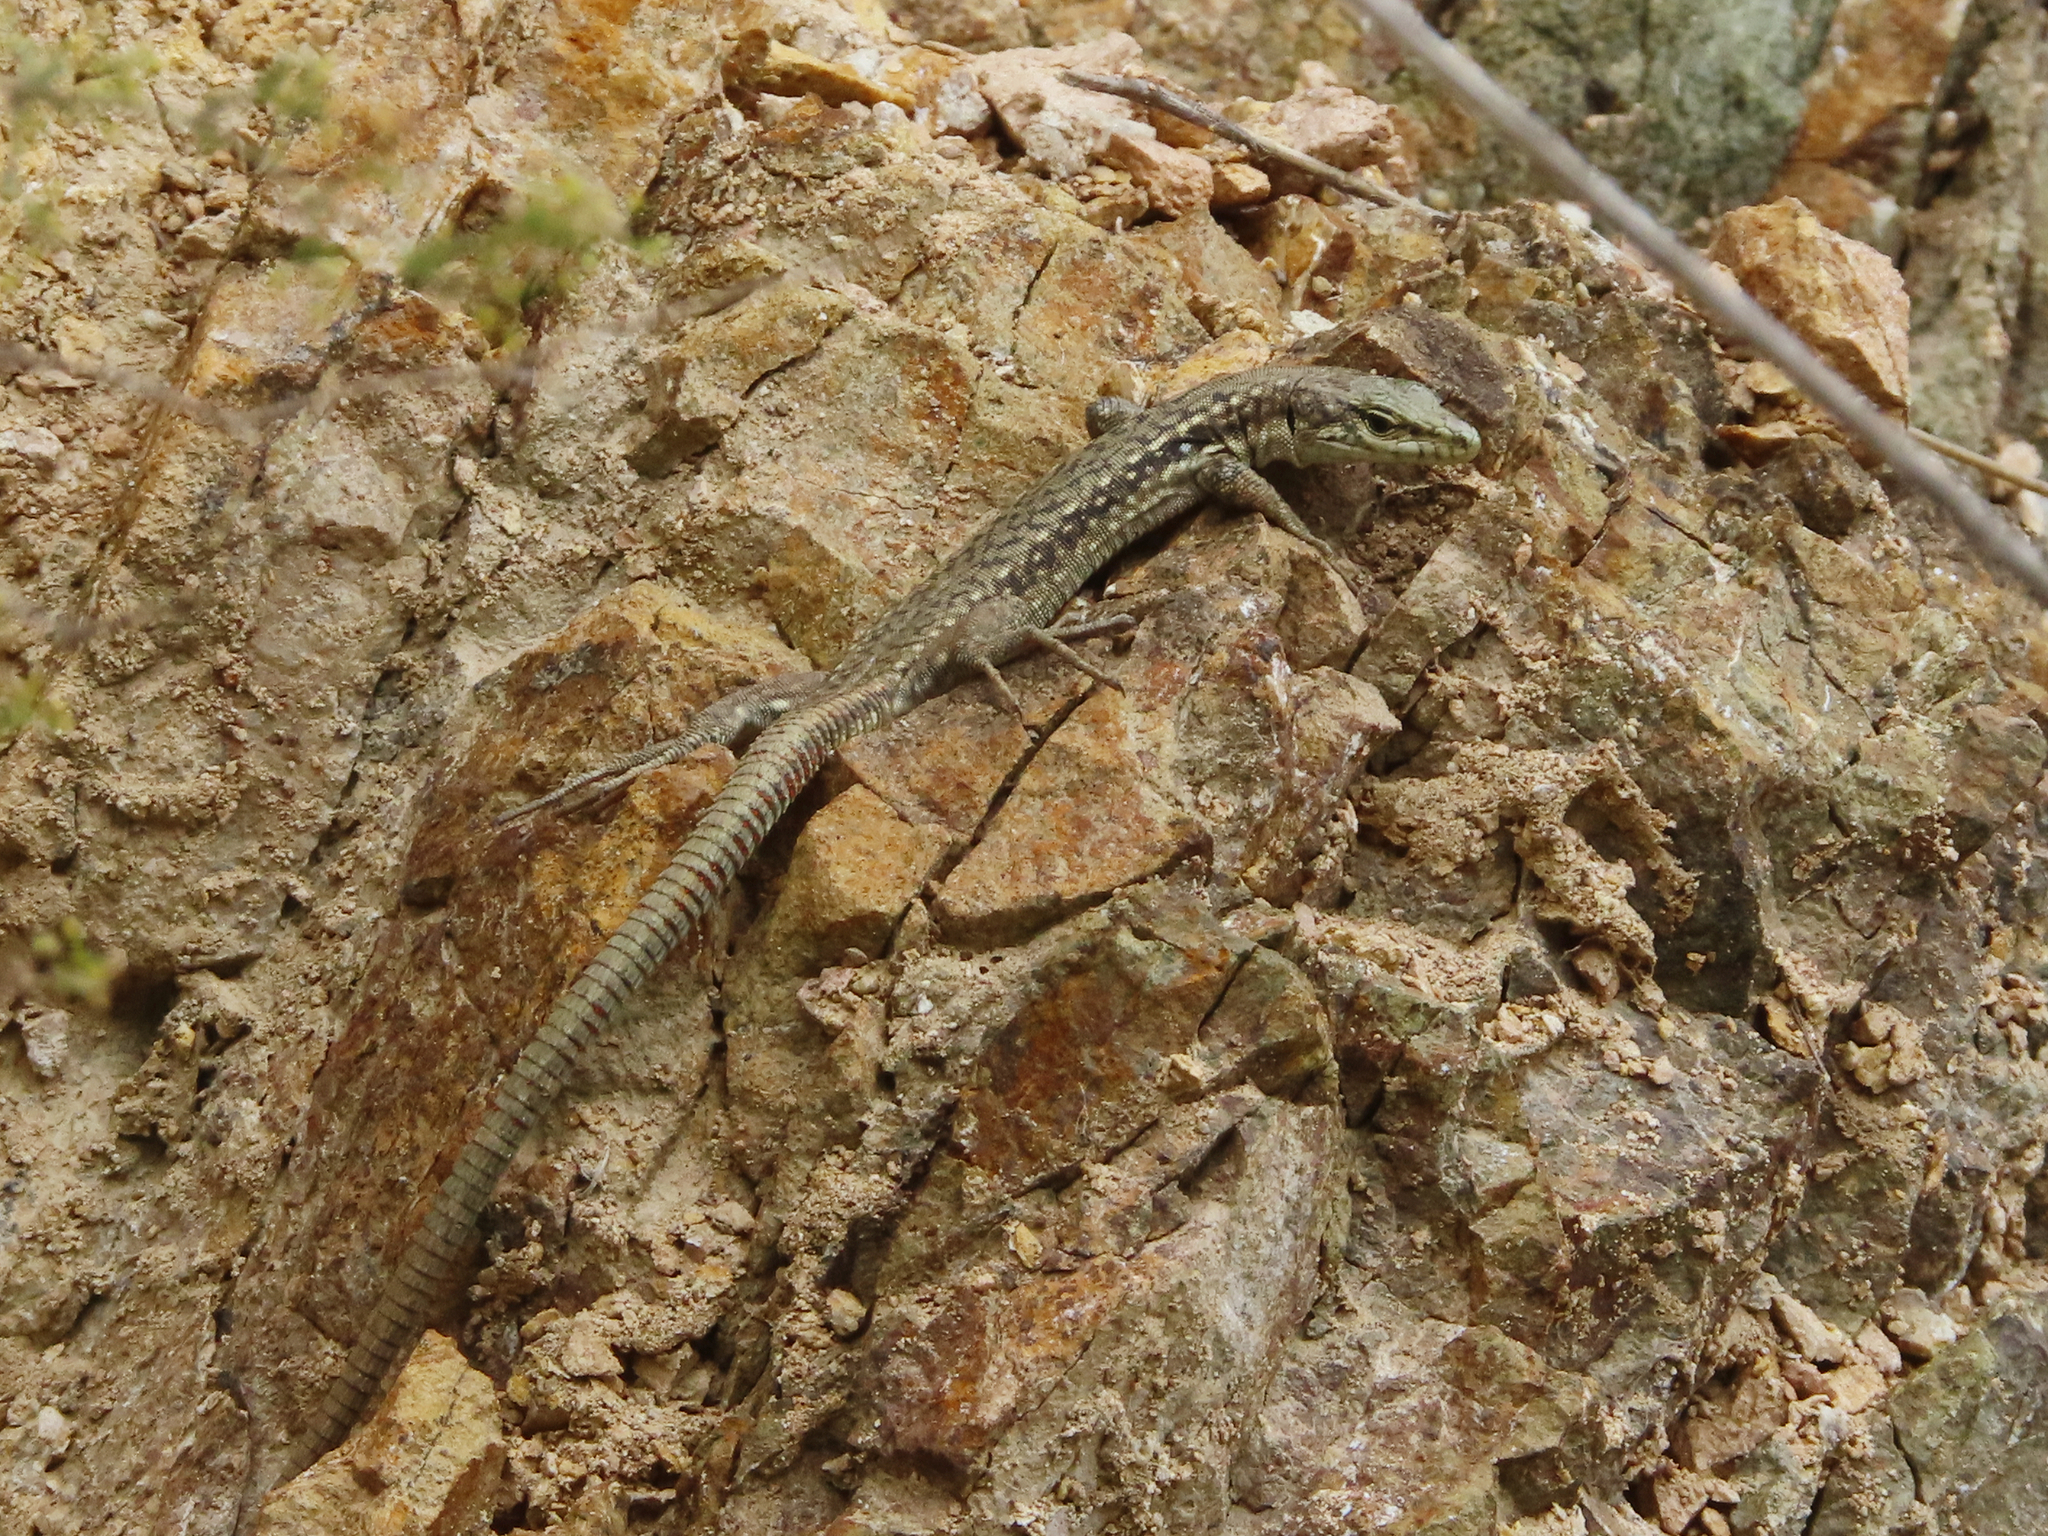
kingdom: Animalia
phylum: Chordata
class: Squamata
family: Lacertidae
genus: Darevskia
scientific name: Darevskia portschinskii
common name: River kura lizard
